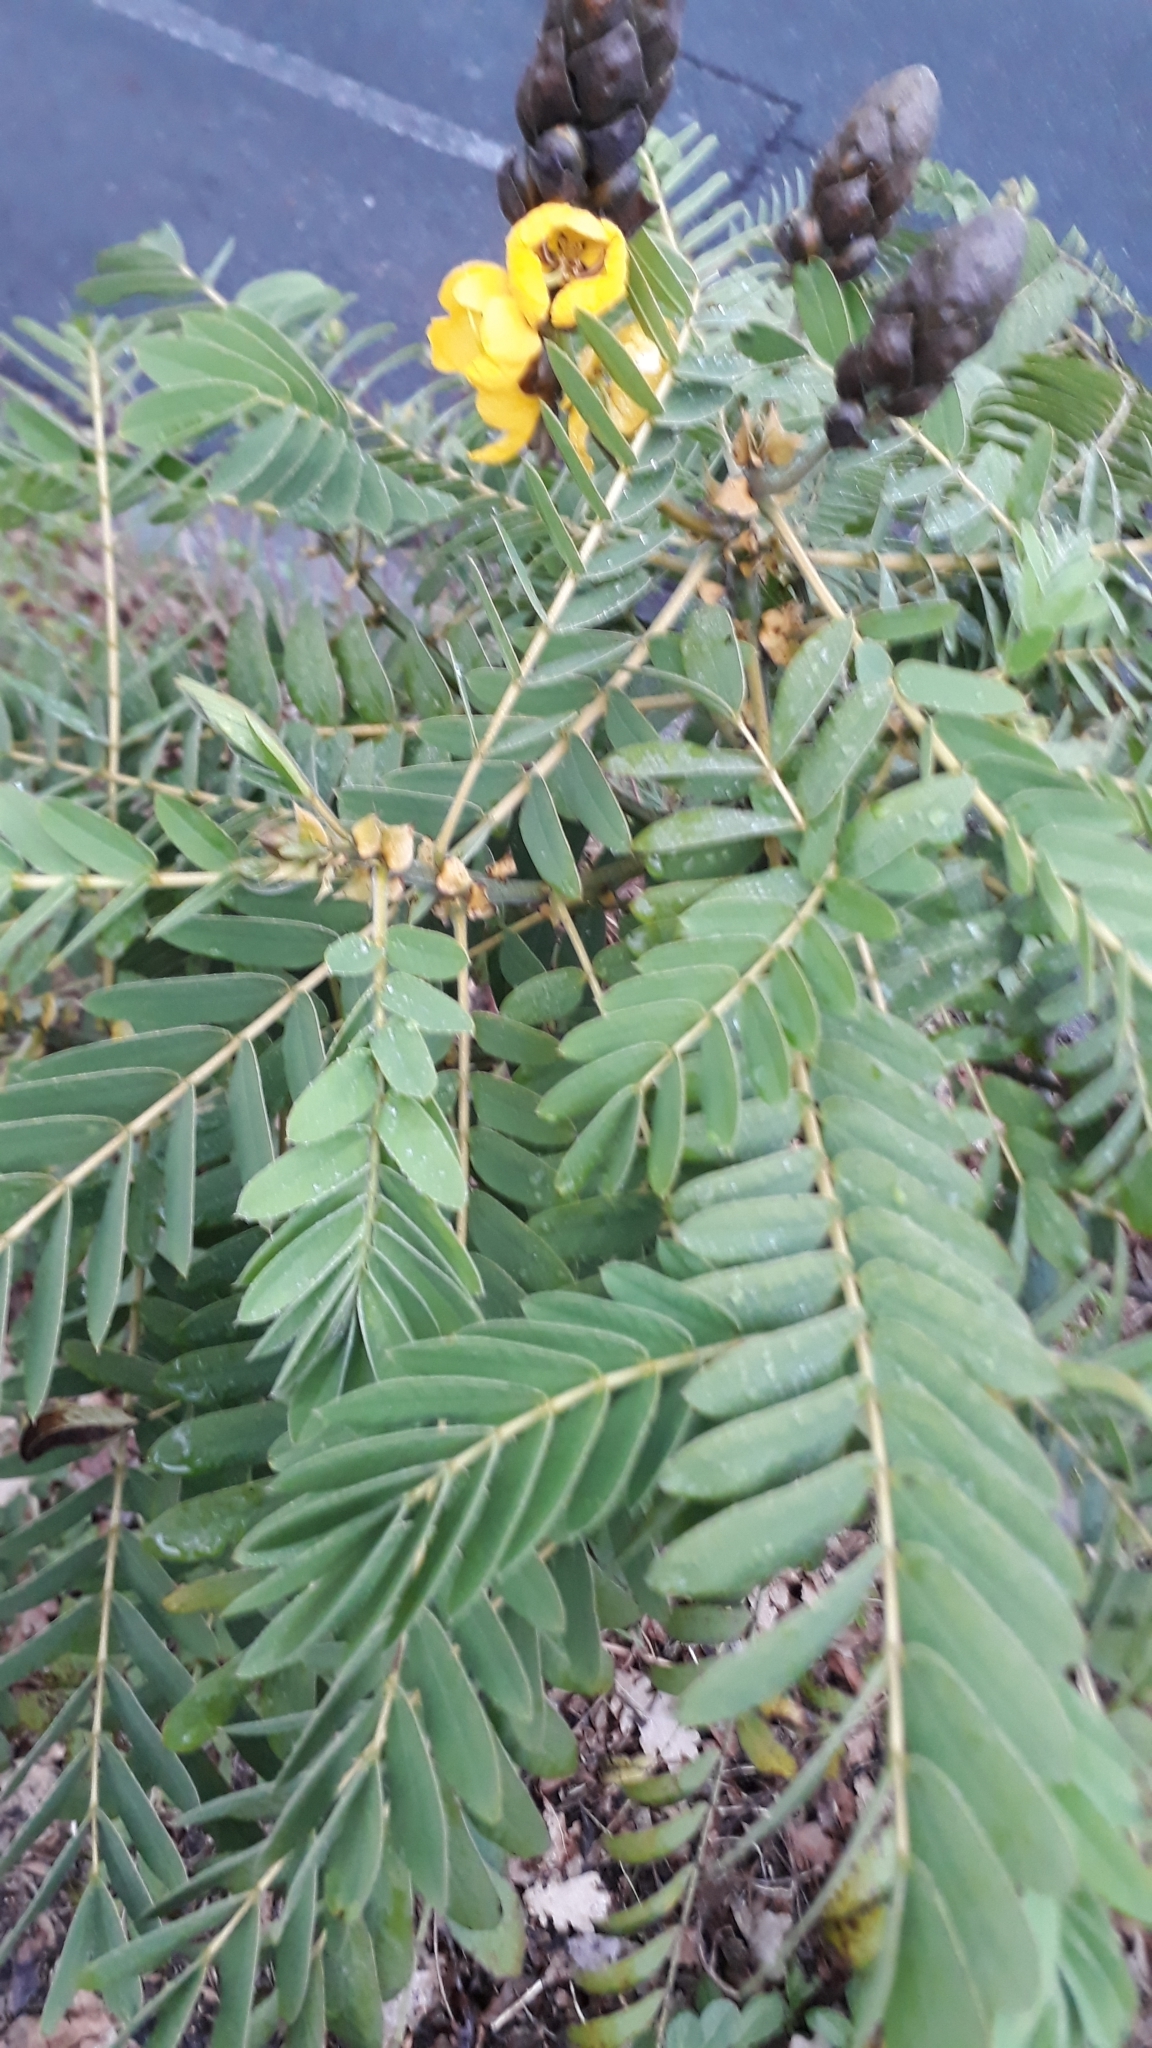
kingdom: Plantae
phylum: Tracheophyta
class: Magnoliopsida
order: Fabales
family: Fabaceae
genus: Senna
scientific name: Senna didymobotrya
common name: African senna
